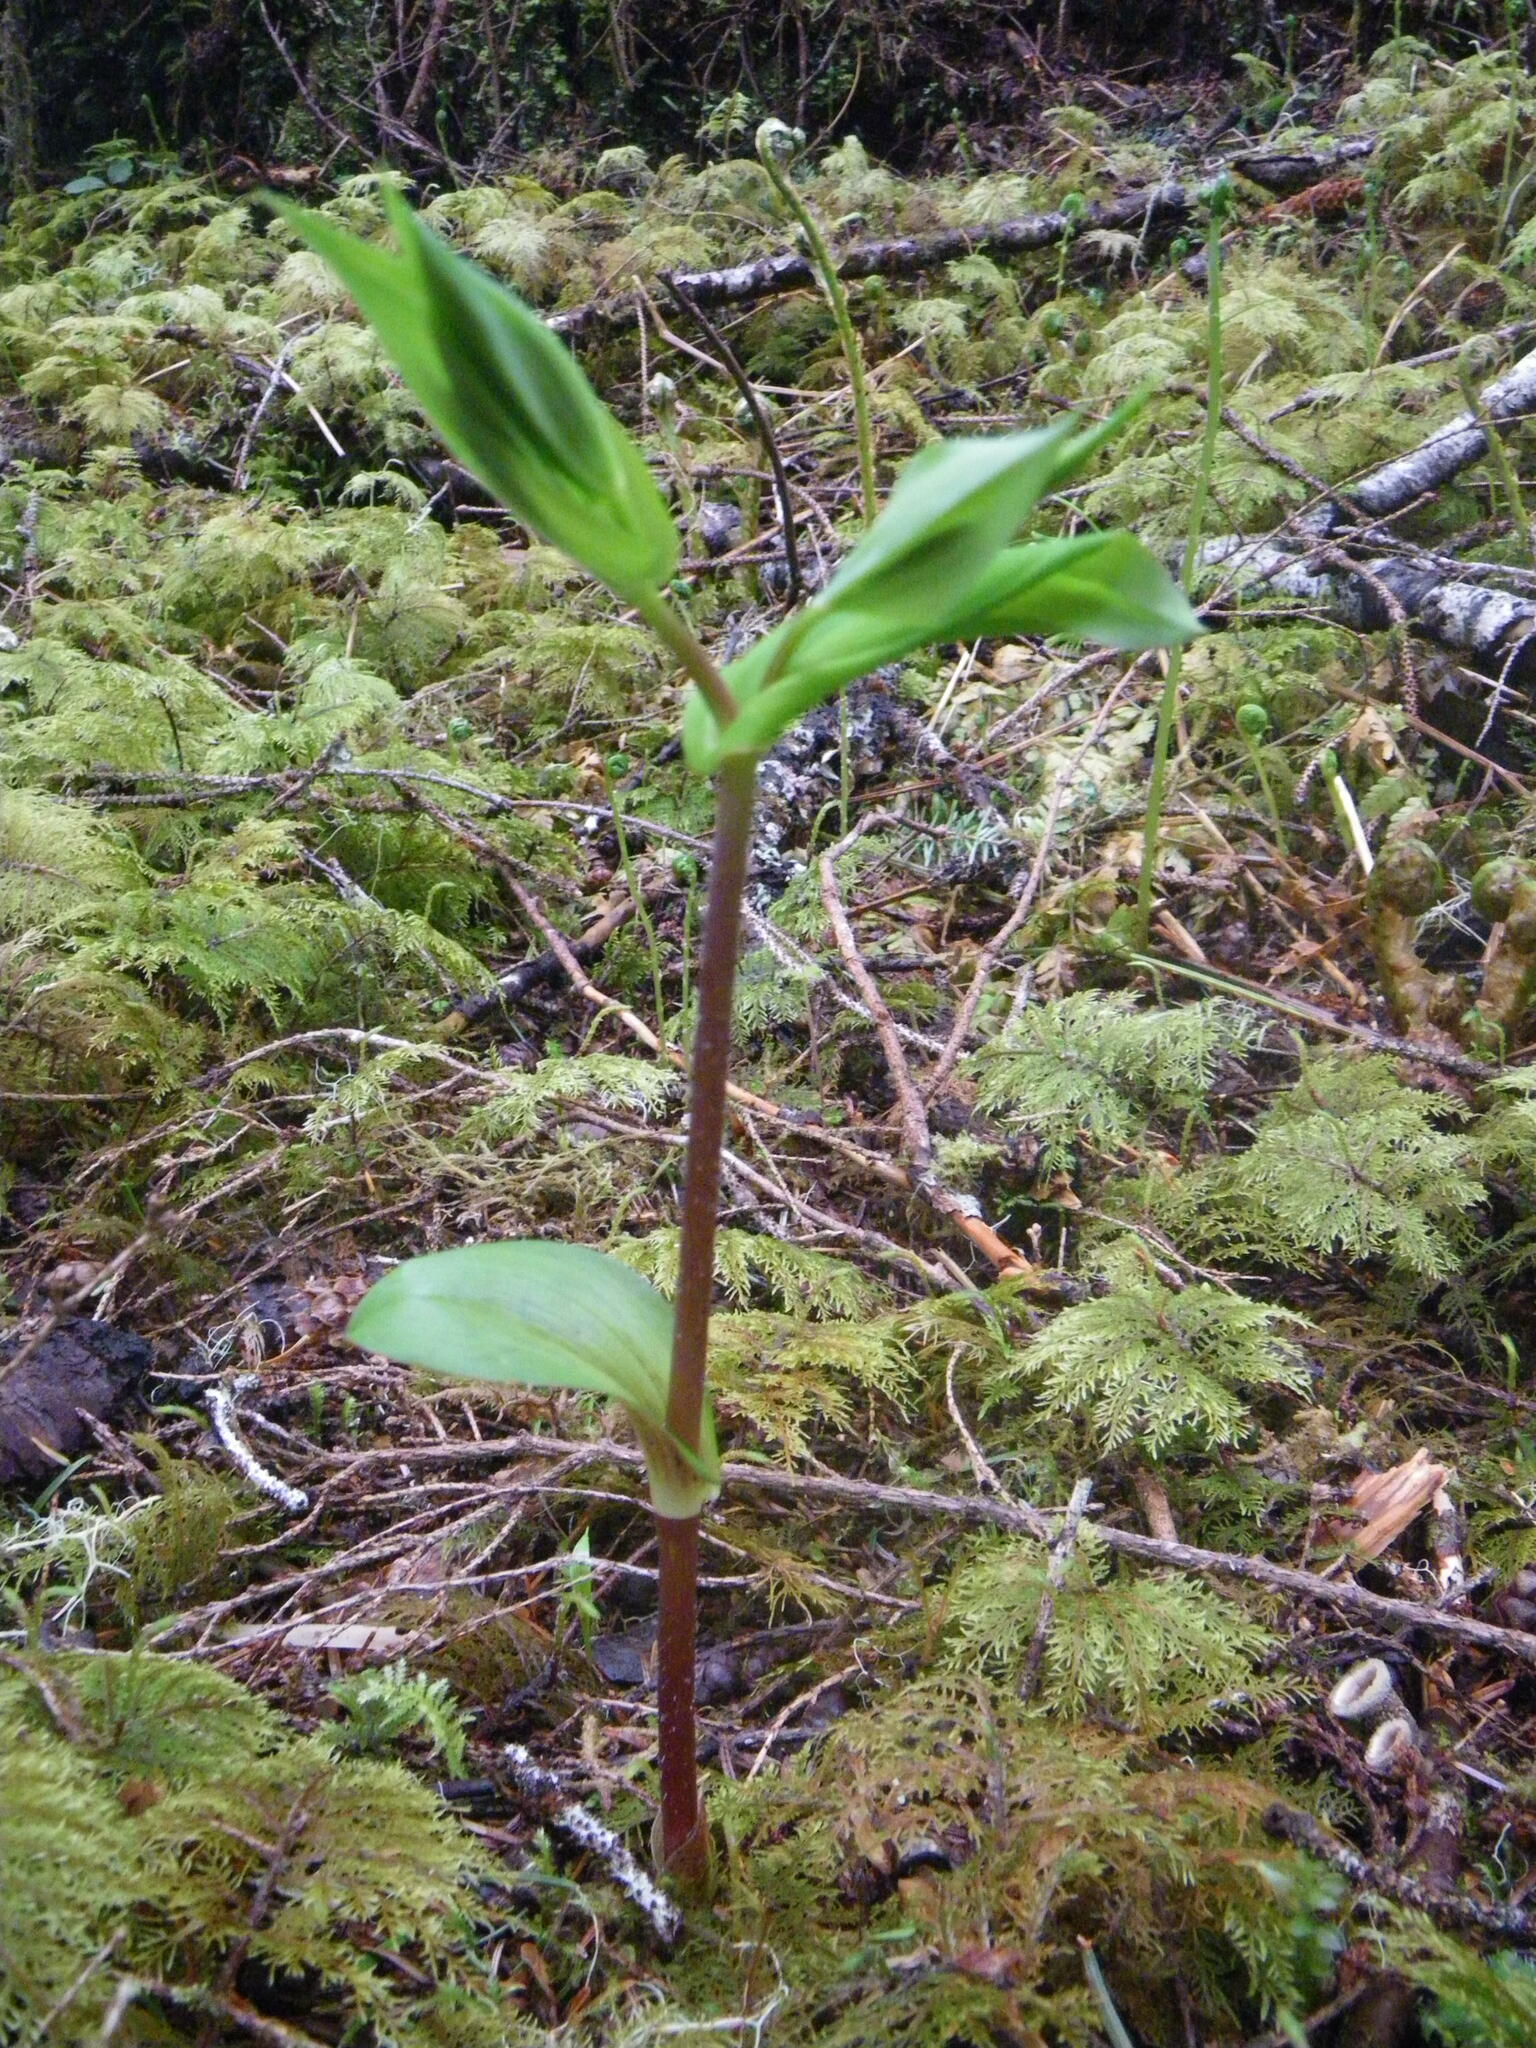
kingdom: Plantae
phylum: Tracheophyta
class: Liliopsida
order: Liliales
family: Liliaceae
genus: Streptopus
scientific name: Streptopus amplexifolius
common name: Clasp twisted stalk
